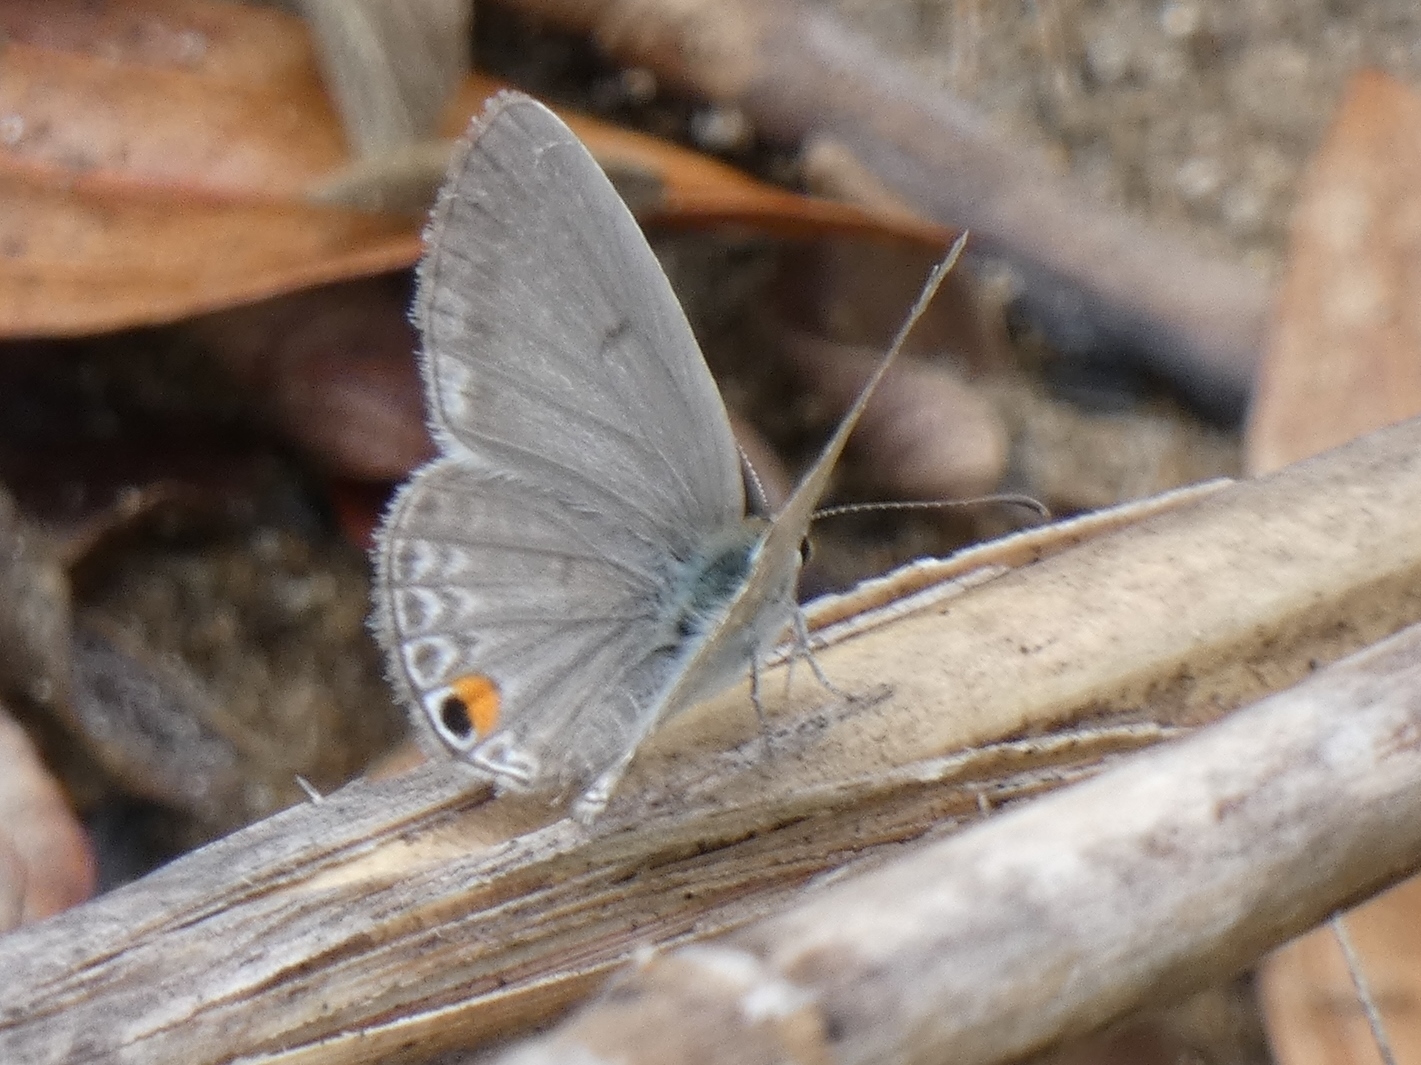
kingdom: Animalia
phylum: Arthropoda
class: Insecta
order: Lepidoptera
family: Lycaenidae
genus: Euchrysops
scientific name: Euchrysops malathana
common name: Common smoky blue
